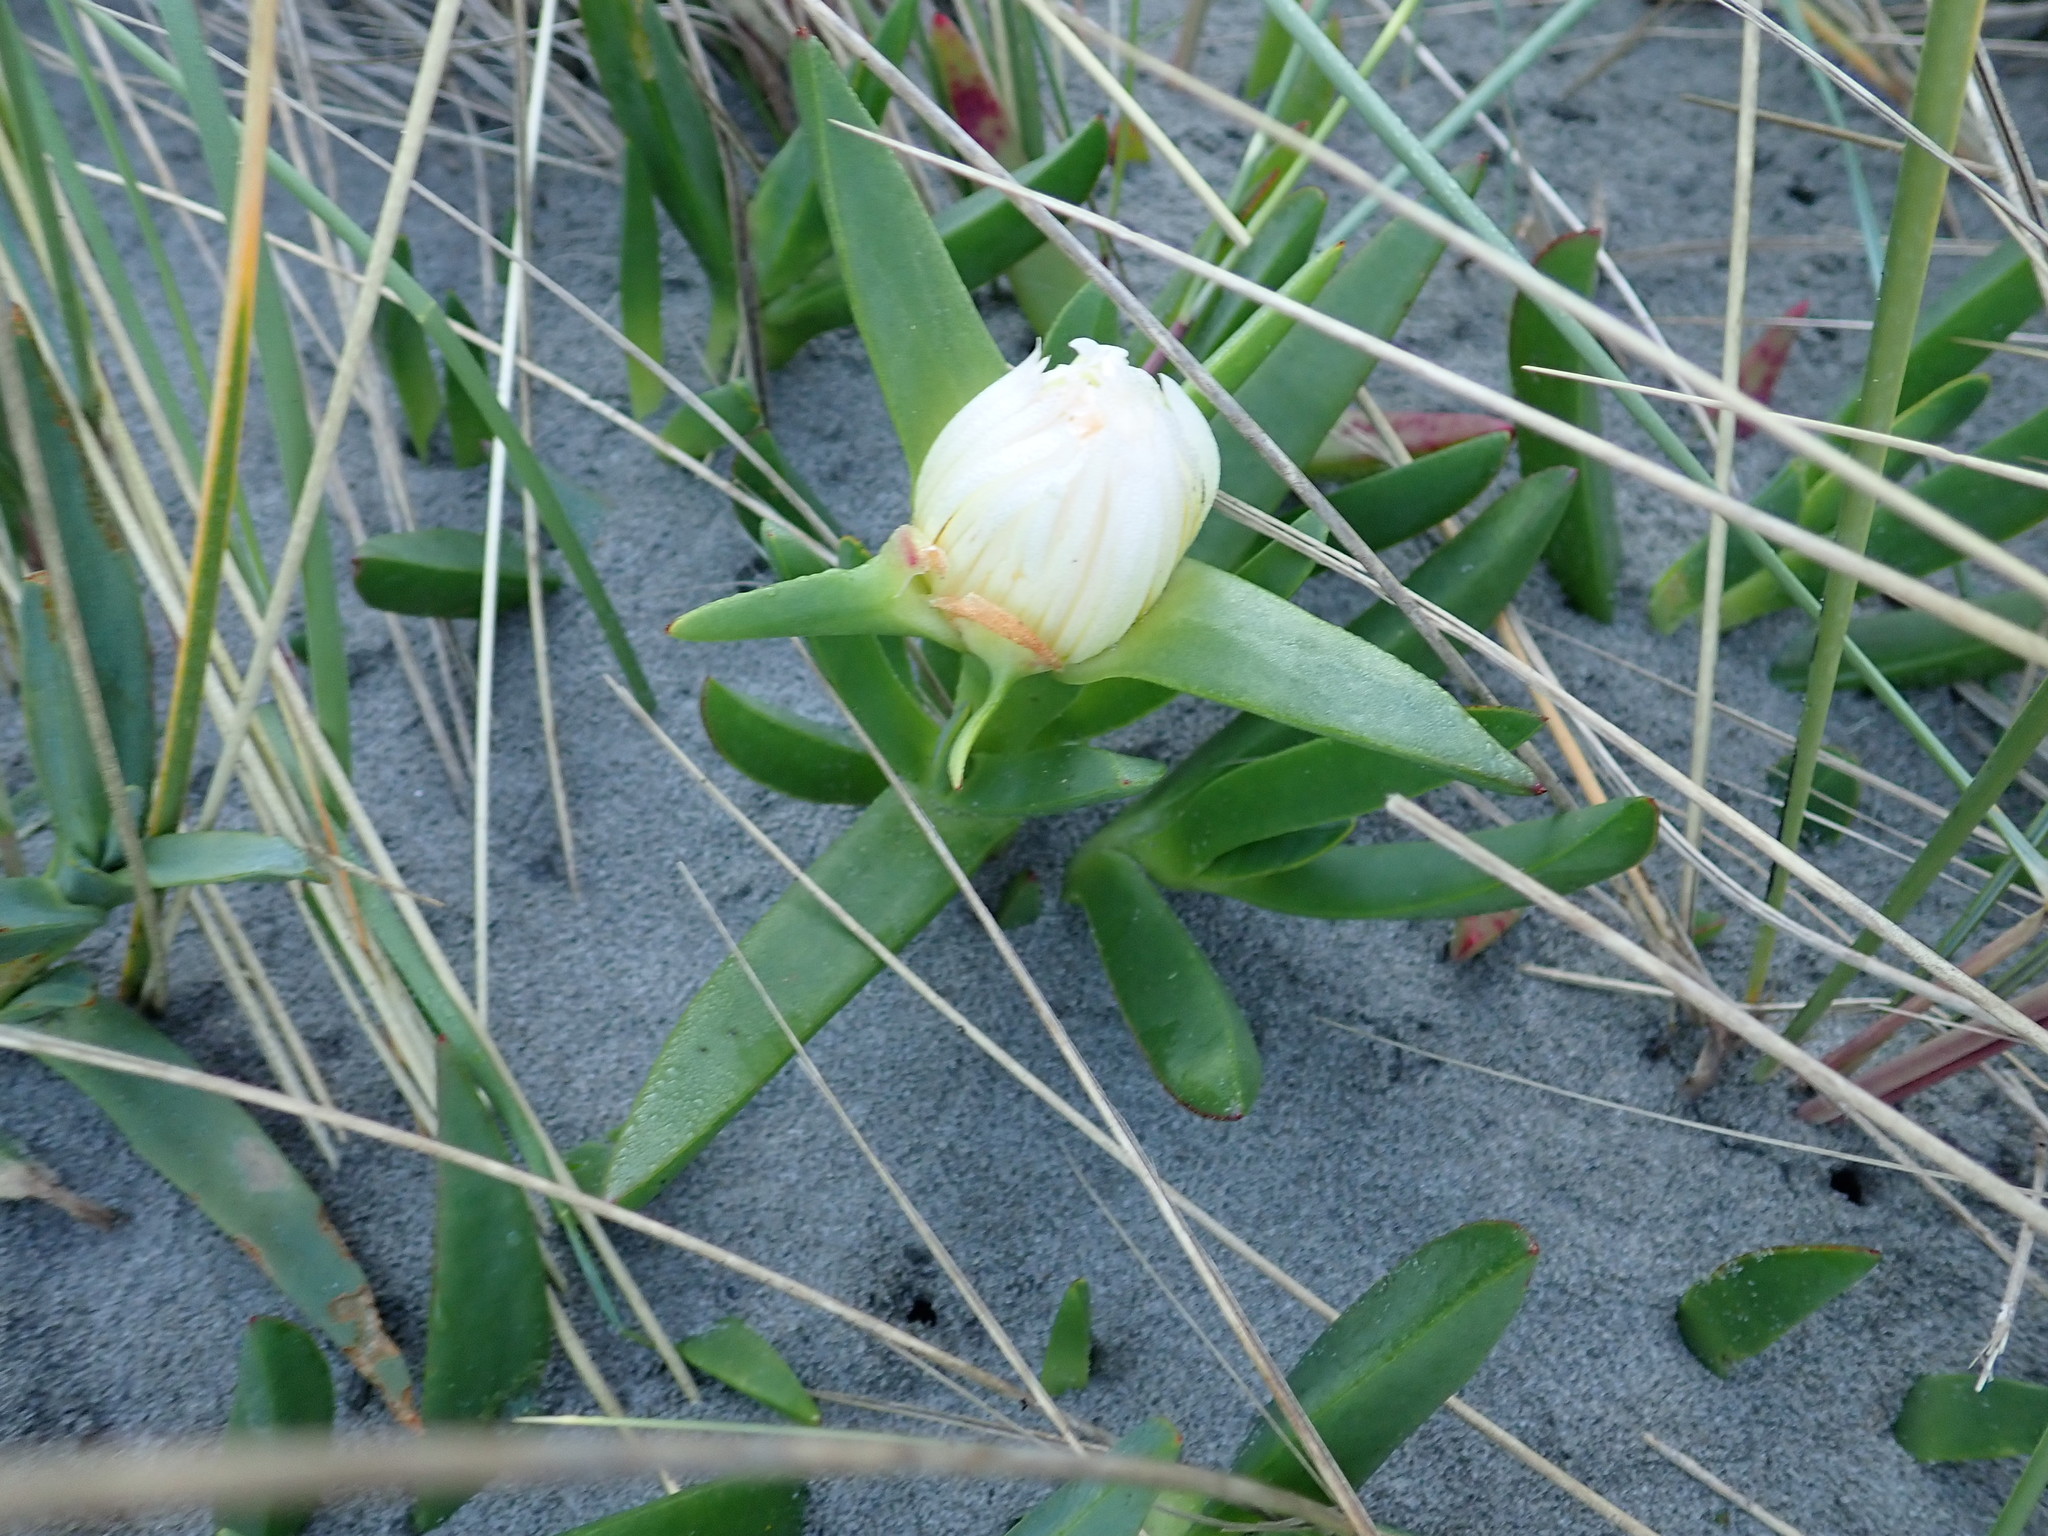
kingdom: Plantae
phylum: Tracheophyta
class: Magnoliopsida
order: Caryophyllales
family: Aizoaceae
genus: Carpobrotus
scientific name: Carpobrotus edulis
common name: Hottentot-fig
